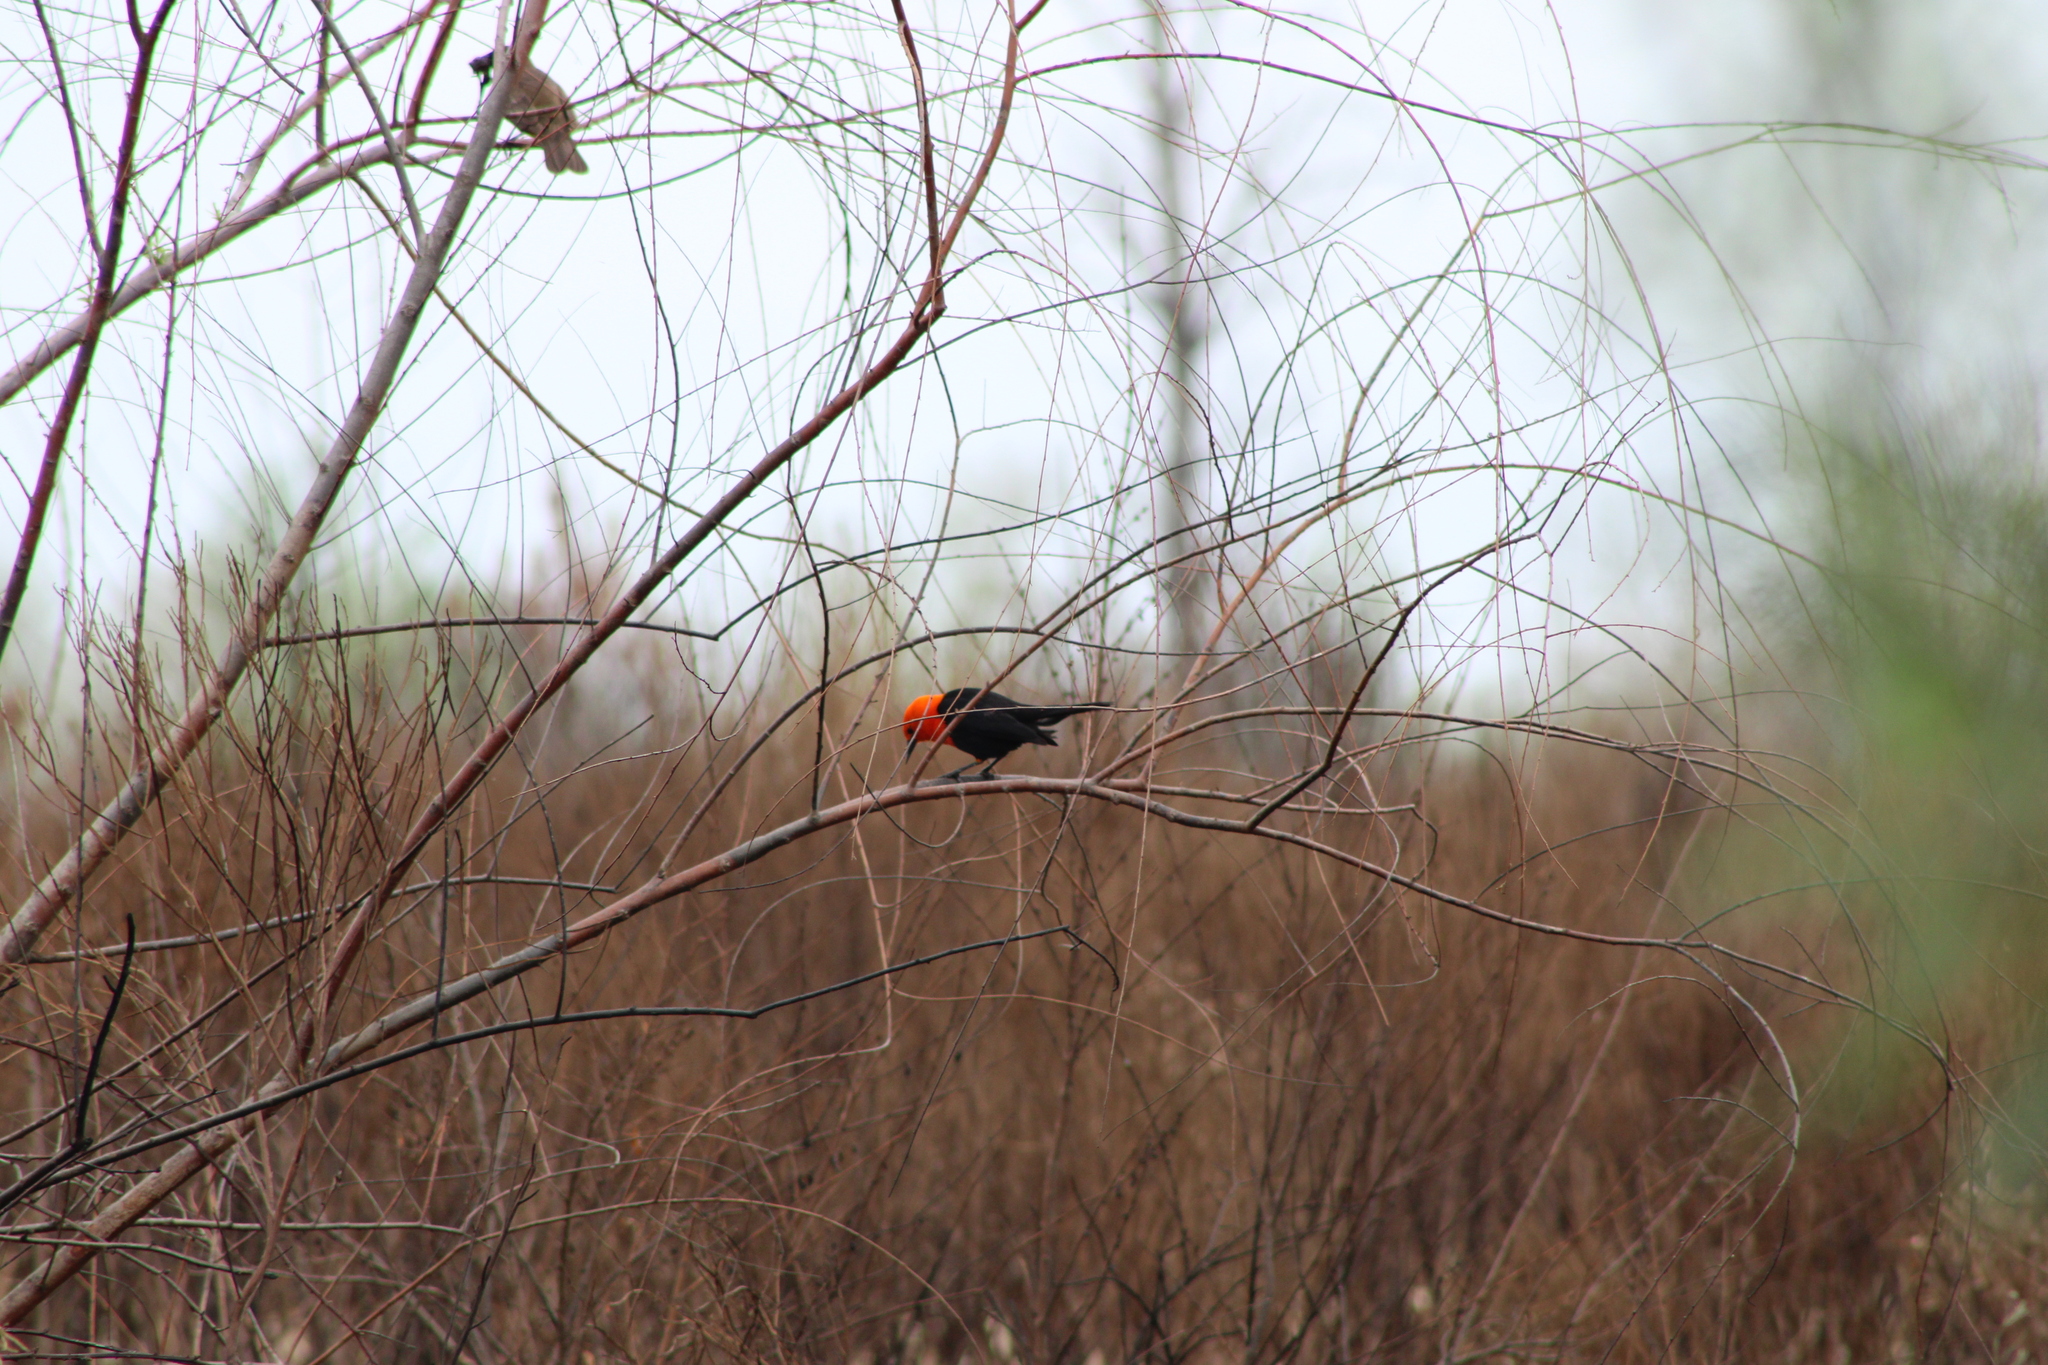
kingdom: Animalia
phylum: Chordata
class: Aves
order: Passeriformes
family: Icteridae
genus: Amblyramphus
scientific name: Amblyramphus holosericeus
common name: Scarlet-headed blackbird
